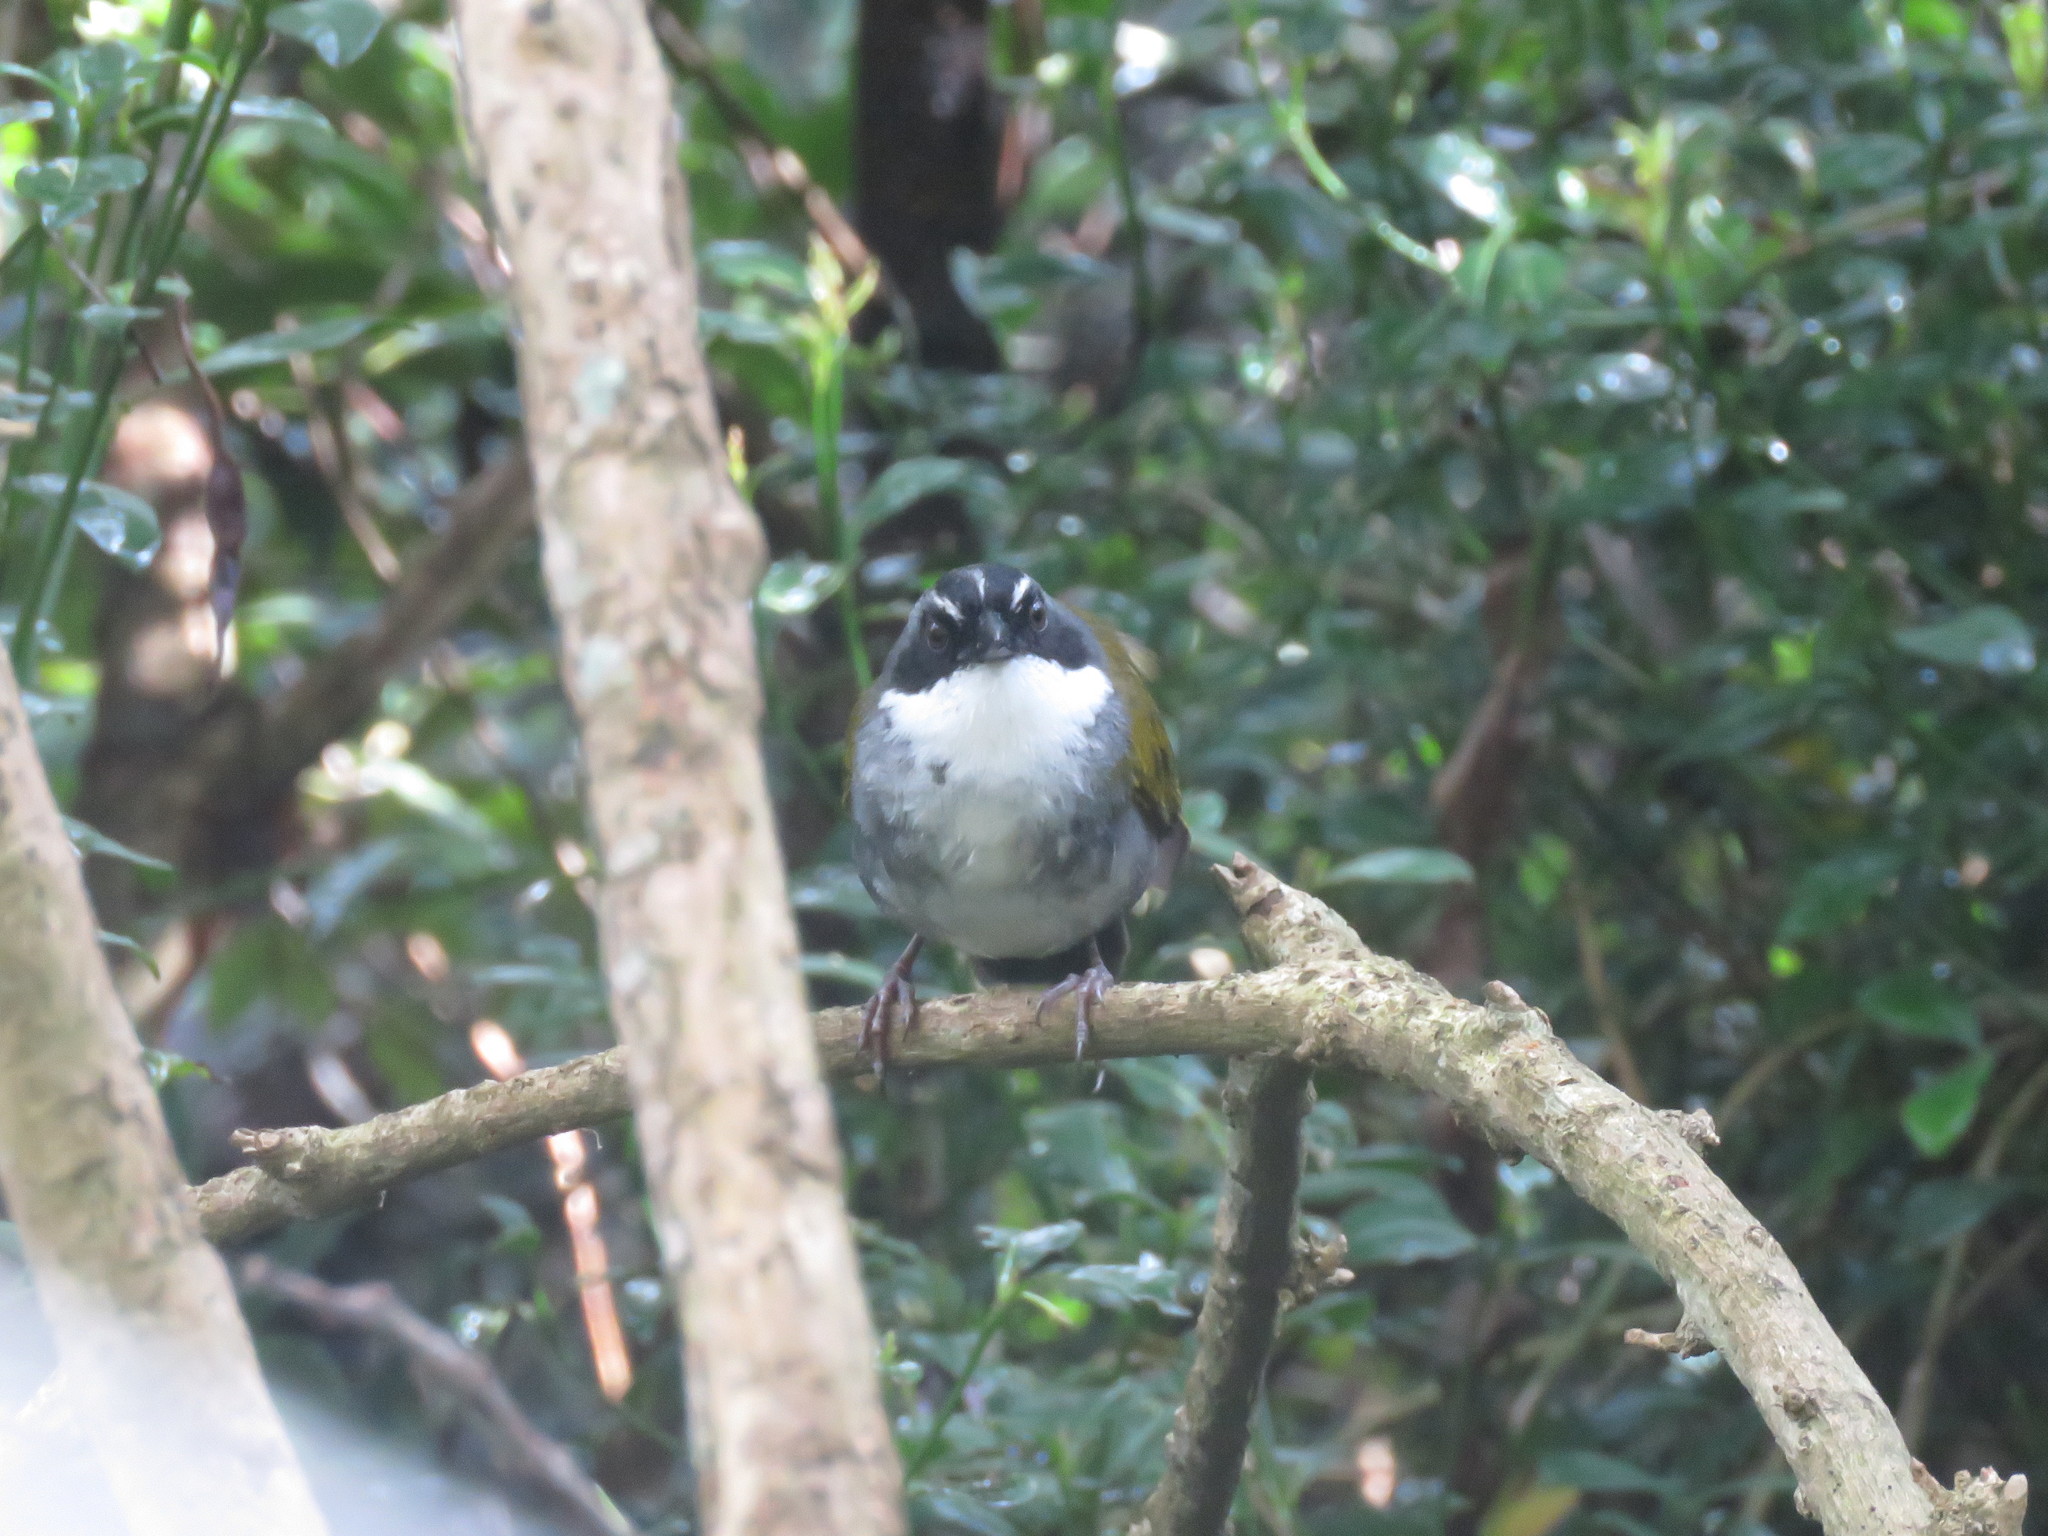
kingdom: Animalia
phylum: Chordata
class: Aves
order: Passeriformes
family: Passerellidae
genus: Arremon
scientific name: Arremon assimilis
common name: Grey-browed brushfinch
